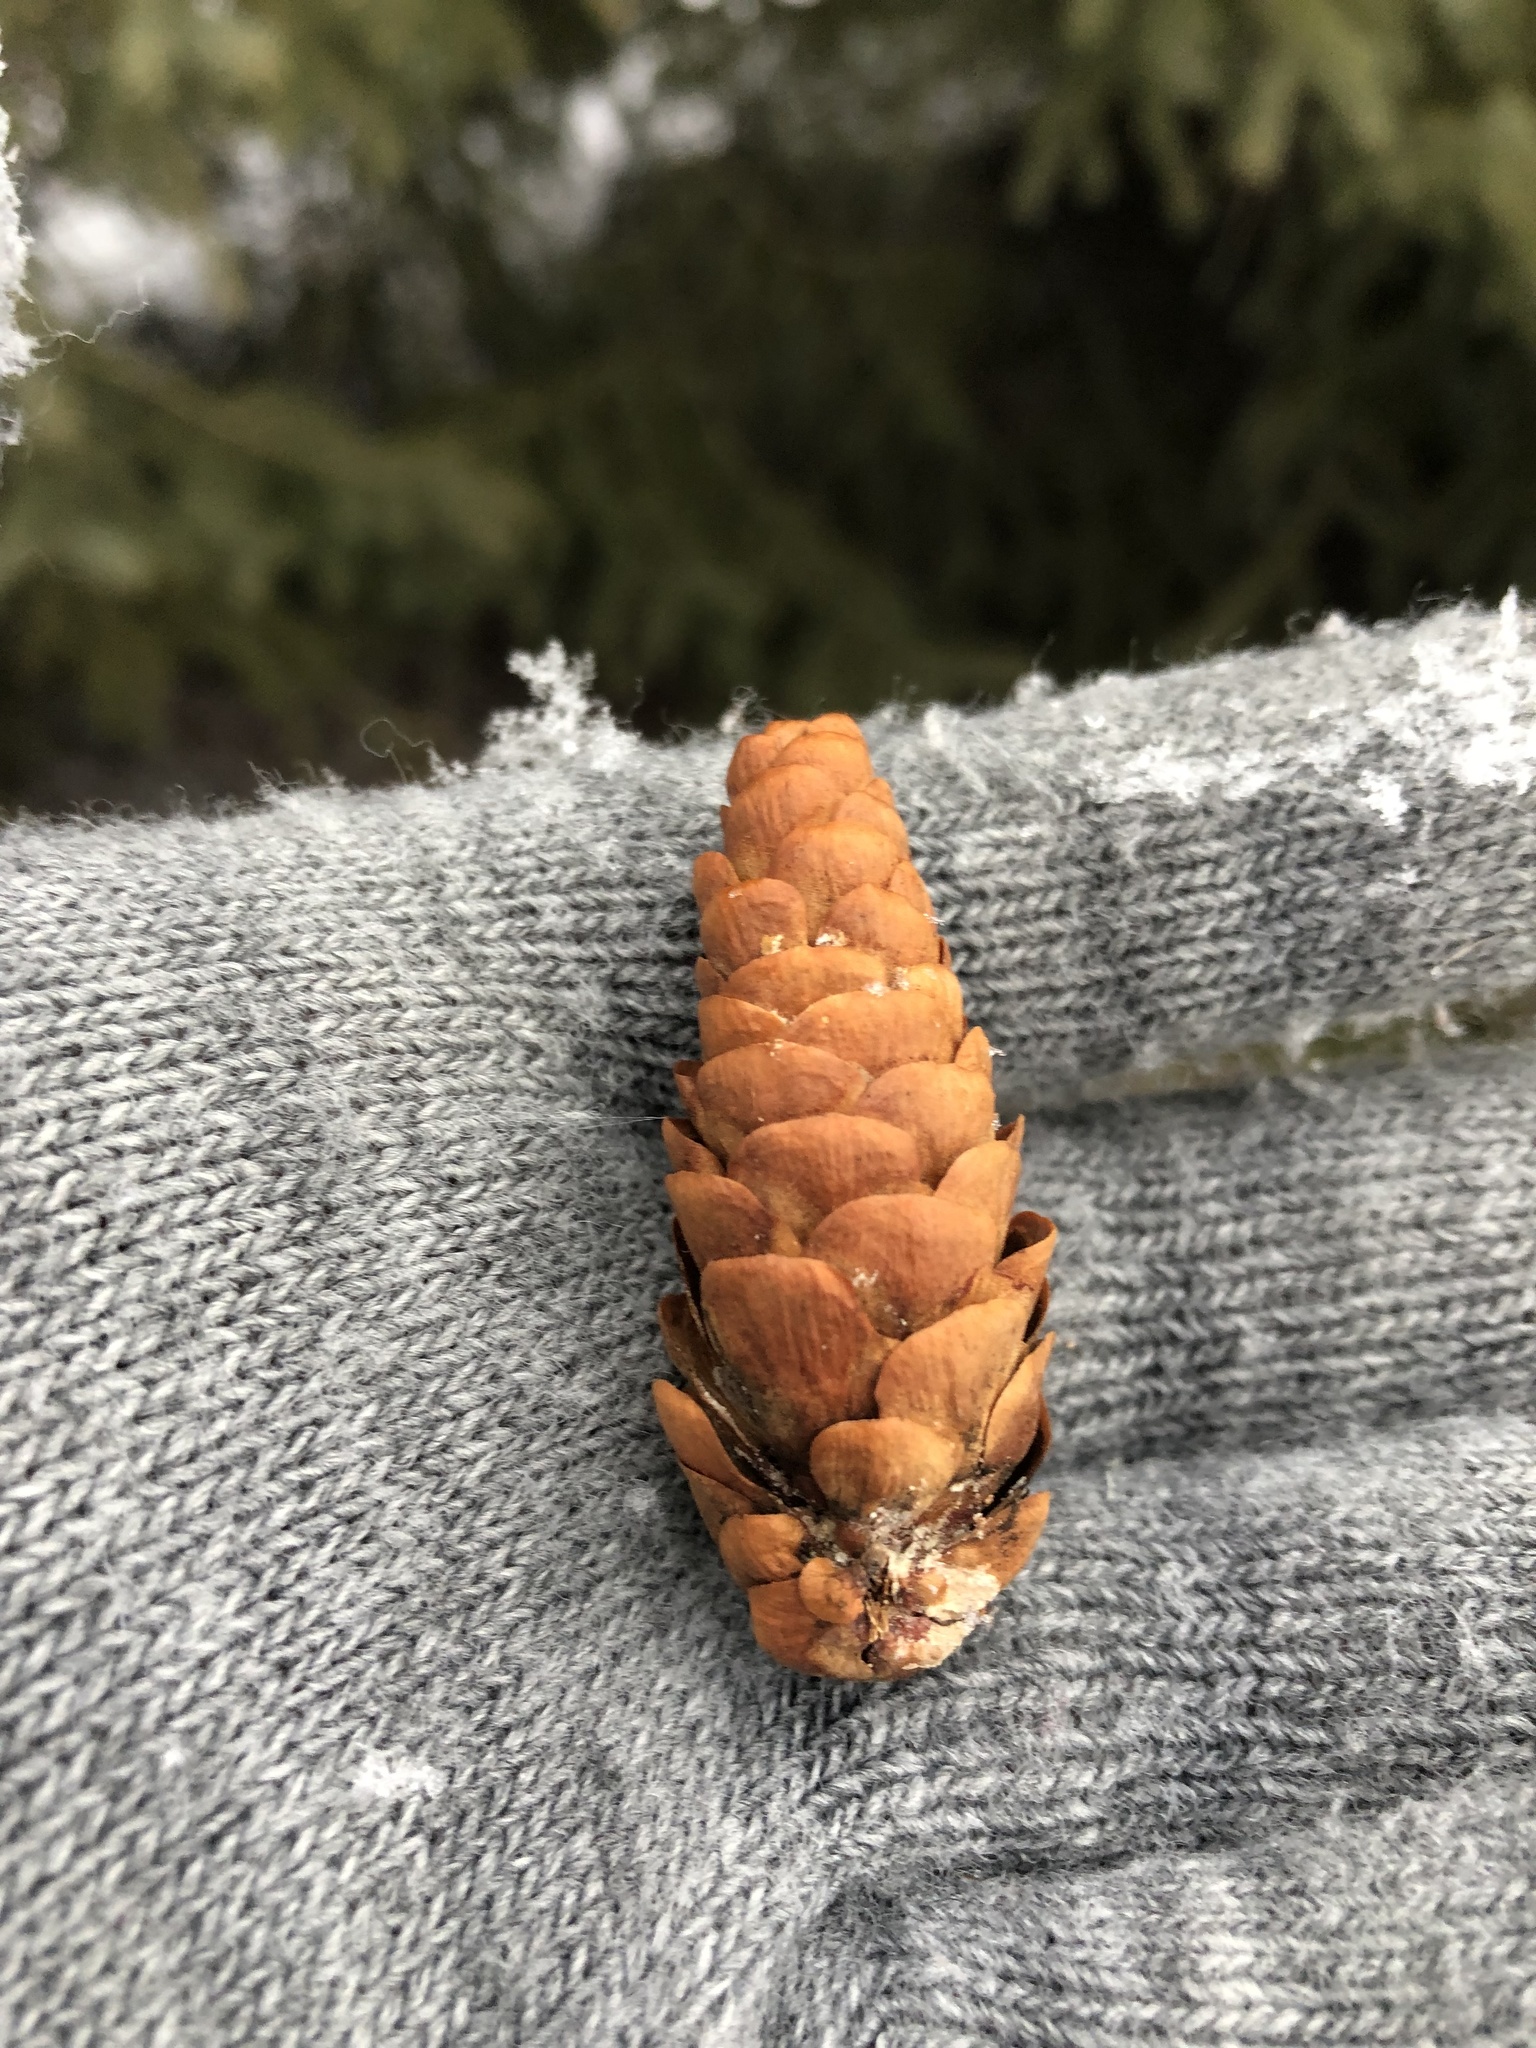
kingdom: Plantae
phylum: Tracheophyta
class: Pinopsida
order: Pinales
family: Pinaceae
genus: Picea
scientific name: Picea glauca
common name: White spruce
